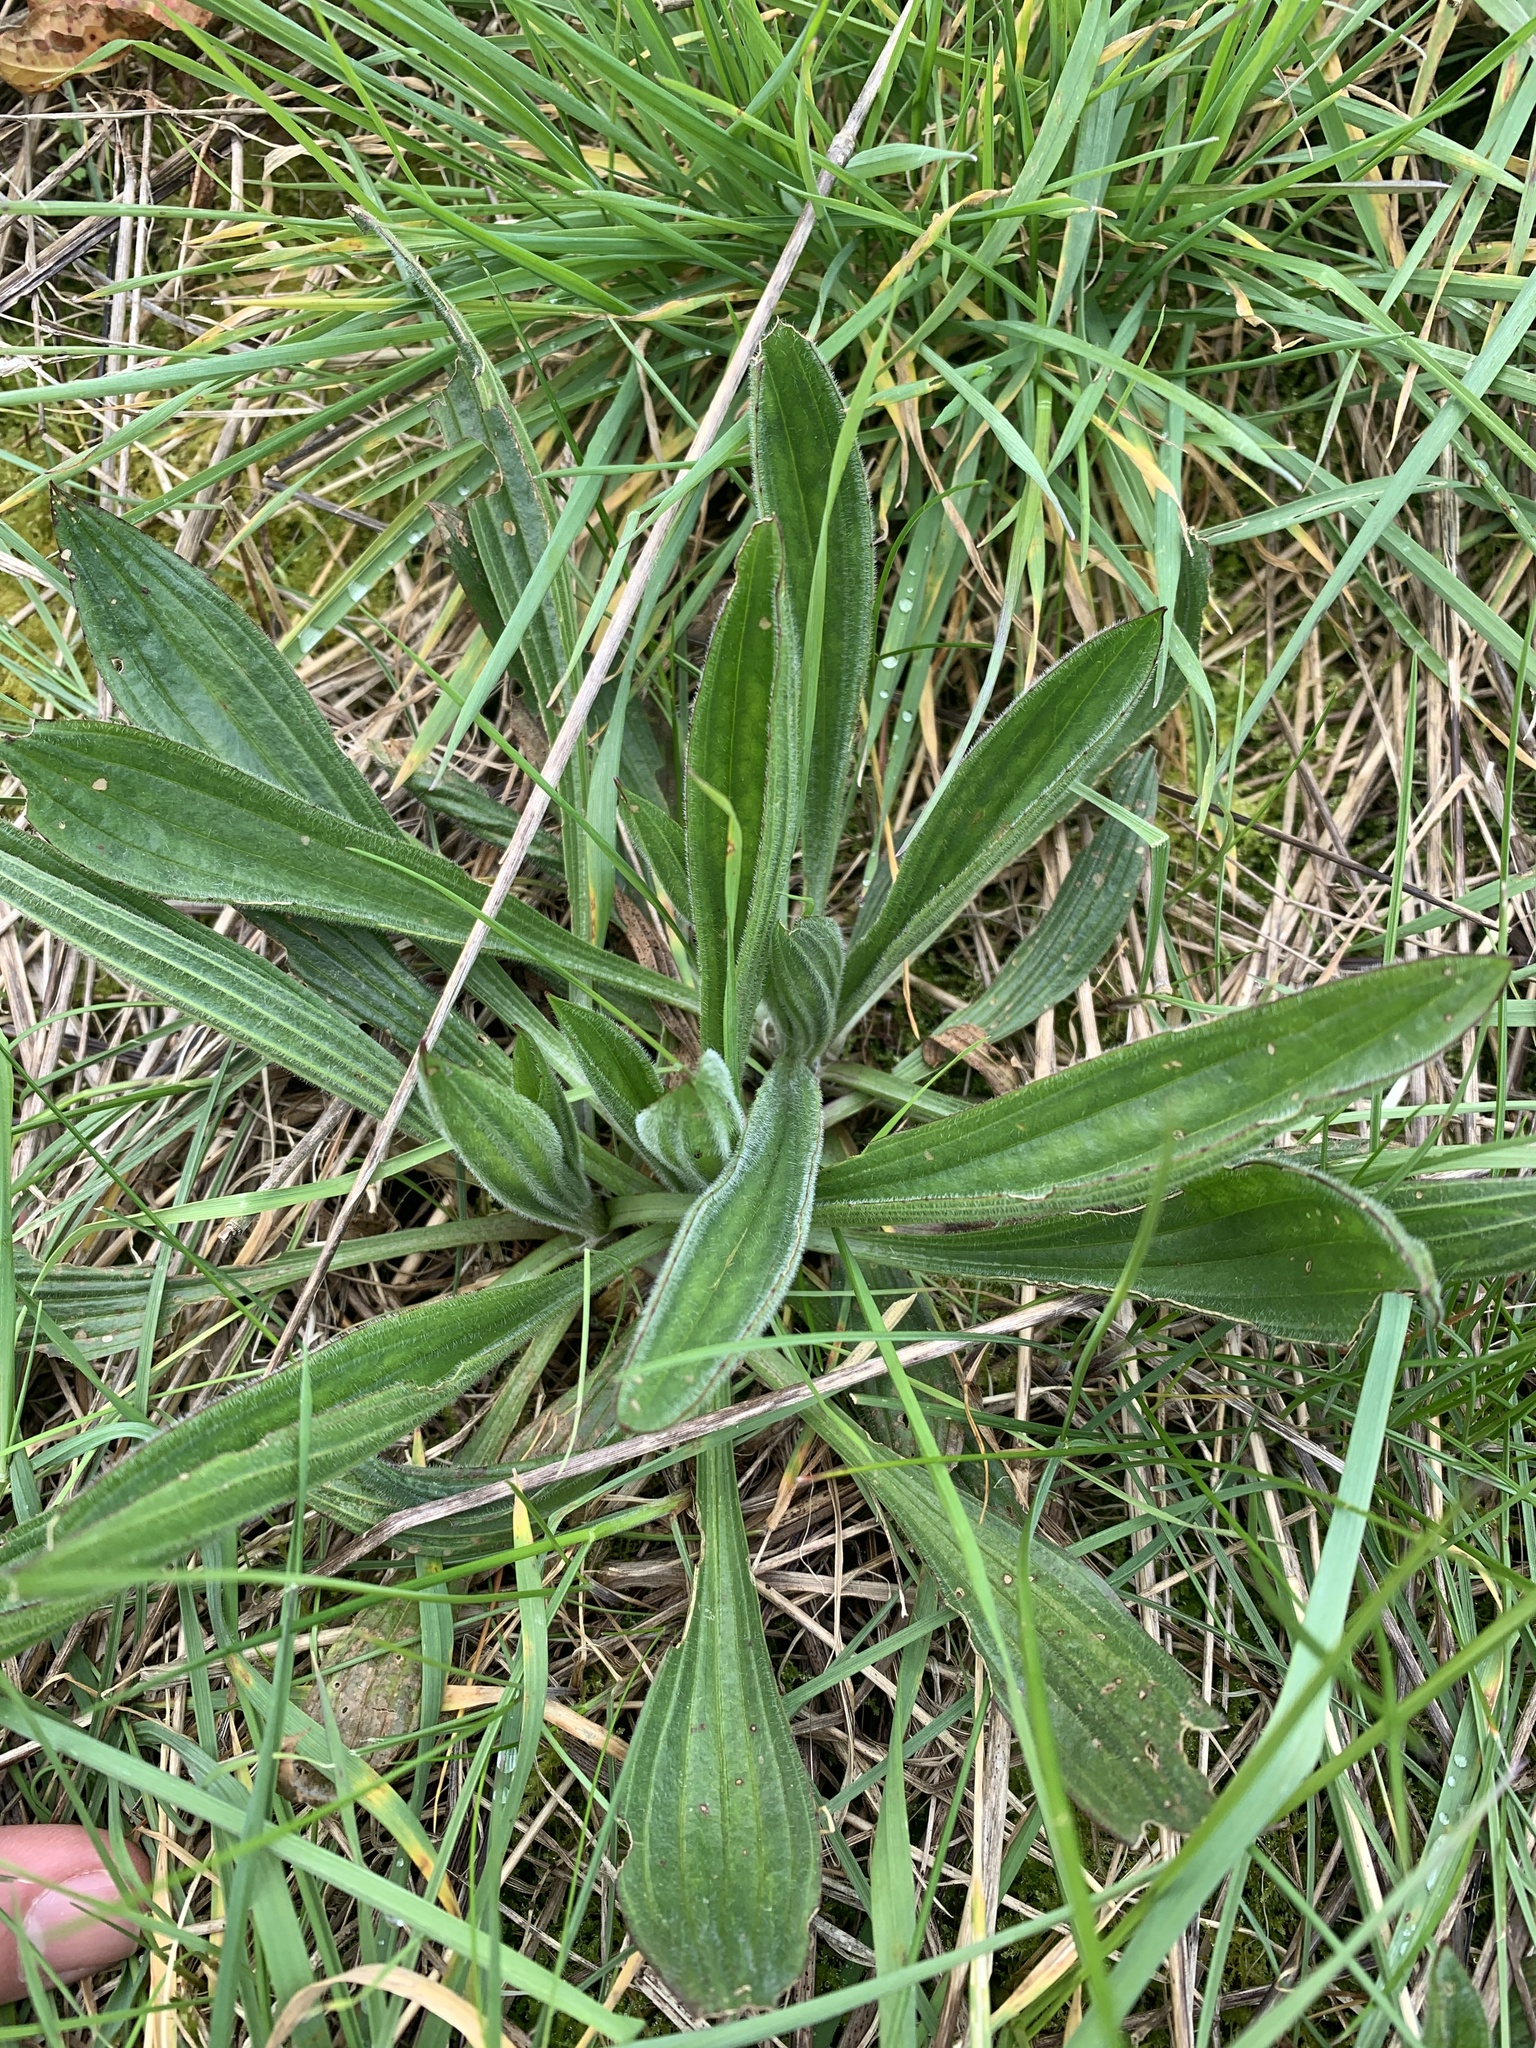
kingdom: Plantae
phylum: Tracheophyta
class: Magnoliopsida
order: Lamiales
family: Plantaginaceae
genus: Plantago
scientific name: Plantago lanceolata
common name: Ribwort plantain
